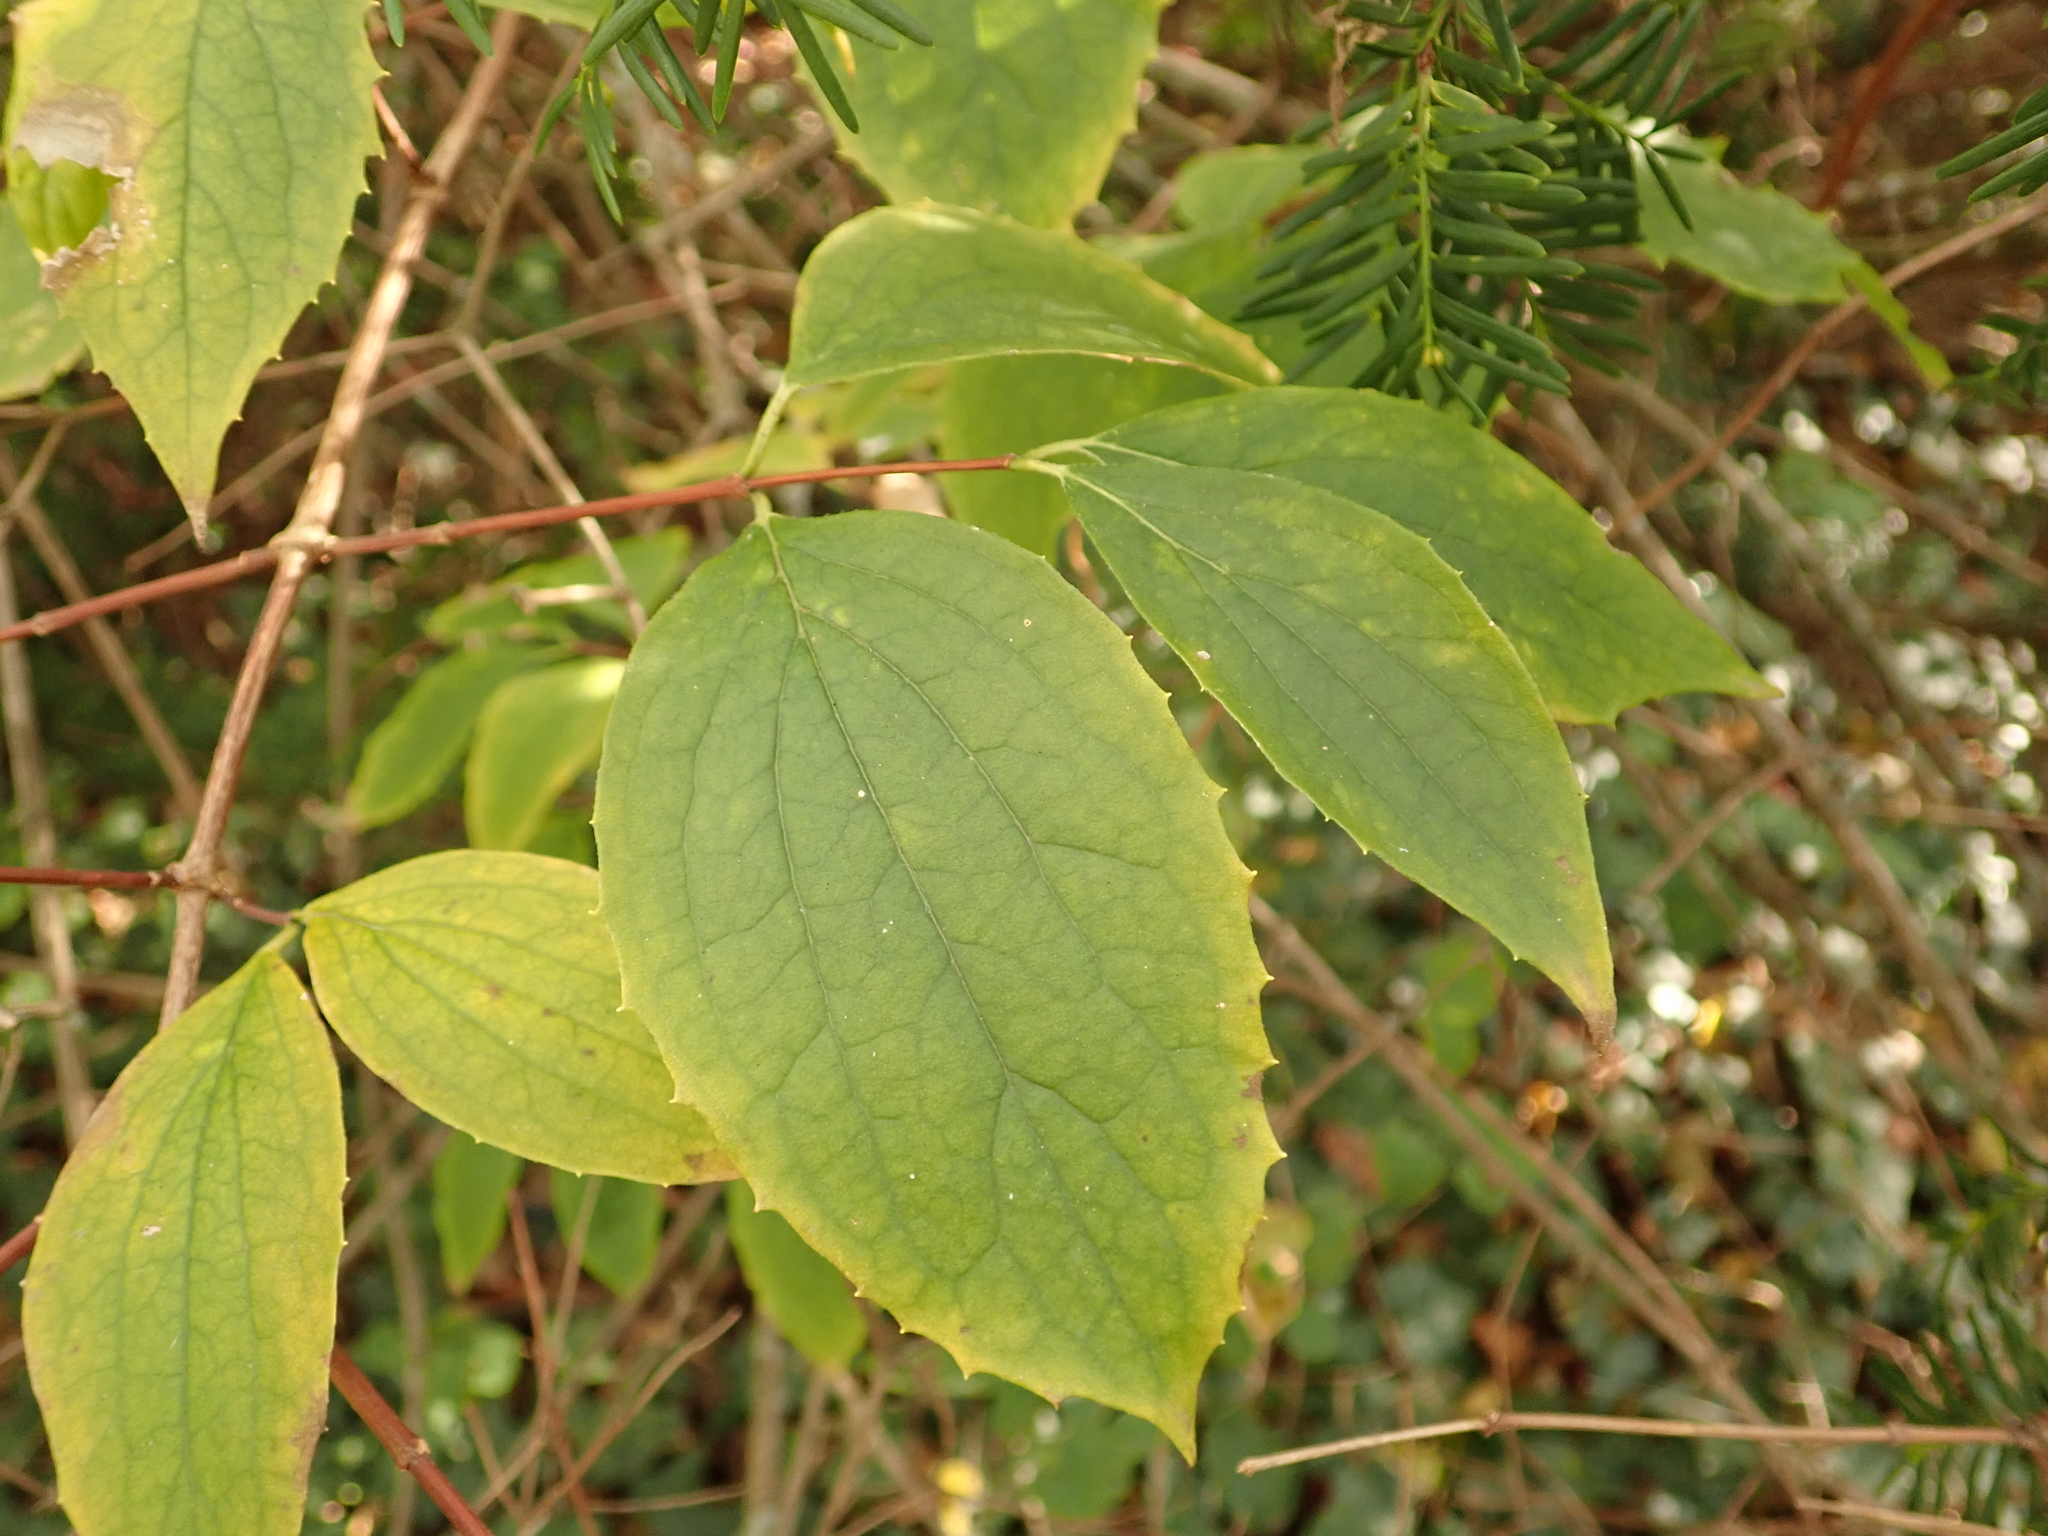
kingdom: Plantae
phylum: Tracheophyta
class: Magnoliopsida
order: Cornales
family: Hydrangeaceae
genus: Philadelphus
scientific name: Philadelphus coronarius
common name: Mock orange
